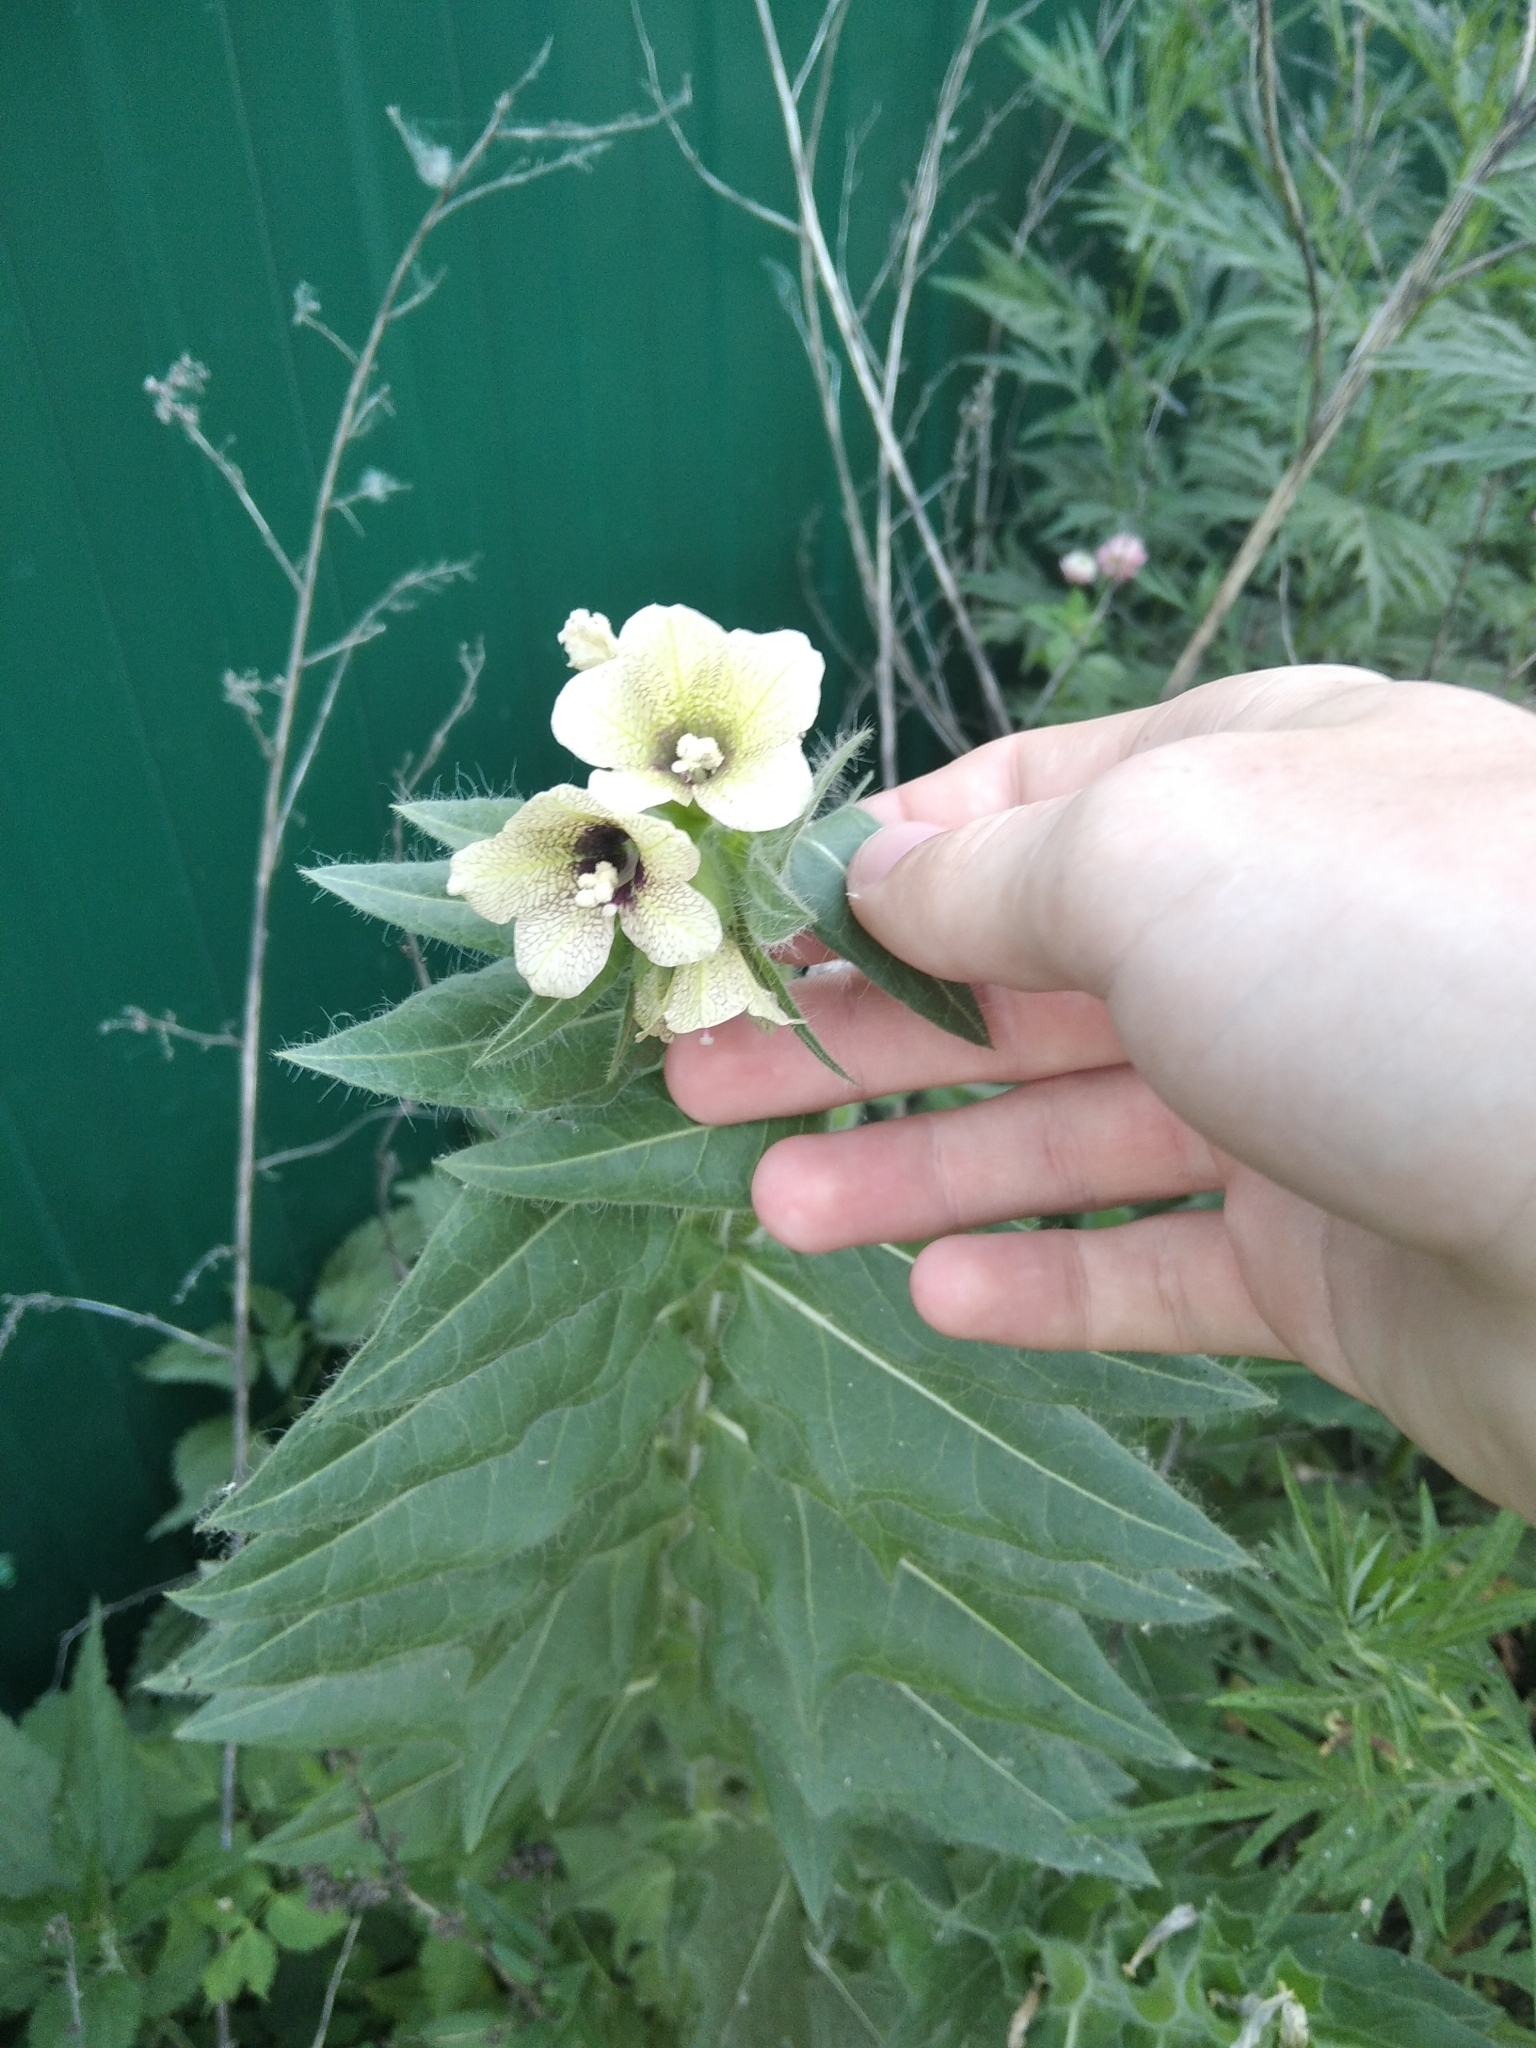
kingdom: Plantae
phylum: Tracheophyta
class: Magnoliopsida
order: Solanales
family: Solanaceae
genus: Hyoscyamus
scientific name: Hyoscyamus niger
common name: Henbane
